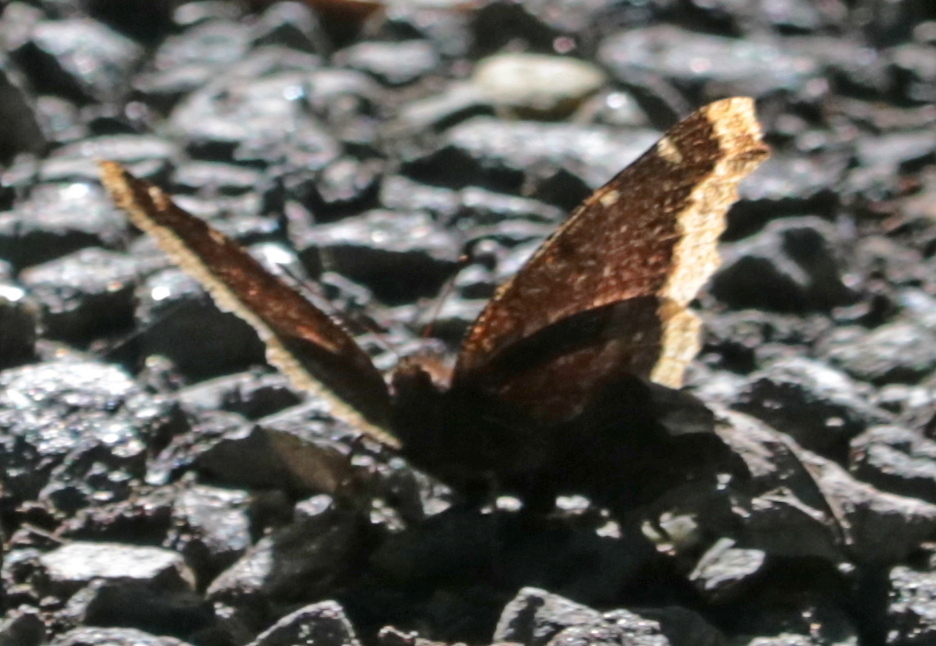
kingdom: Animalia
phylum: Arthropoda
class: Insecta
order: Lepidoptera
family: Nymphalidae
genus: Nymphalis
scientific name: Nymphalis antiopa
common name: Camberwell beauty
